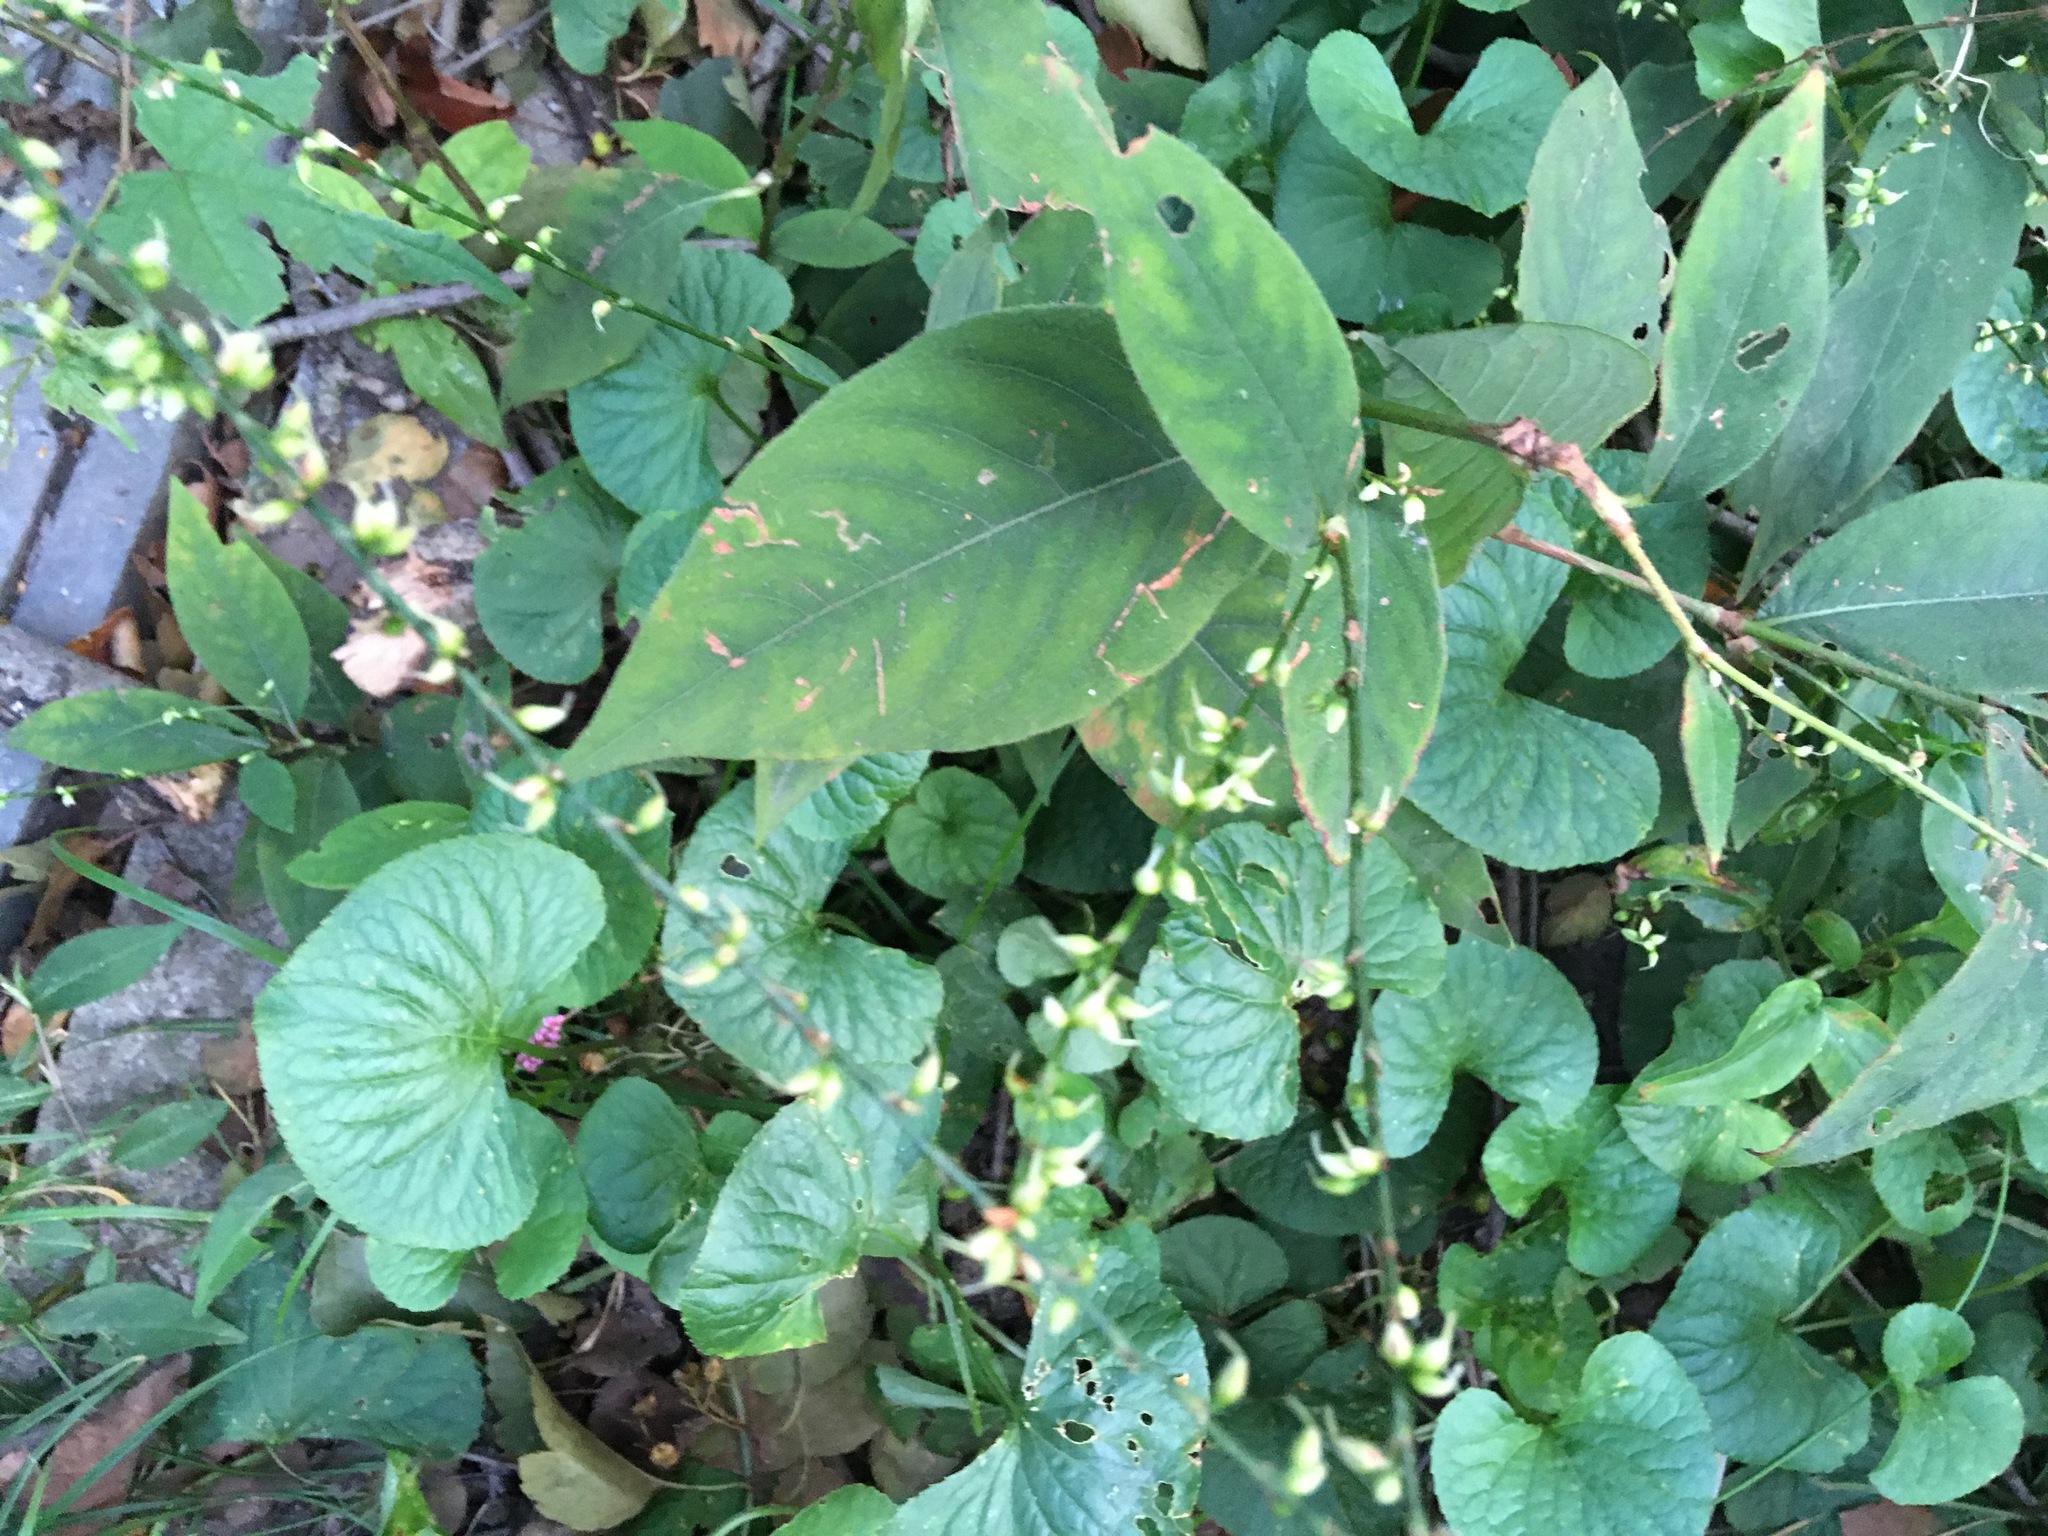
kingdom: Plantae
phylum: Tracheophyta
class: Magnoliopsida
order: Caryophyllales
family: Polygonaceae
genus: Persicaria
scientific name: Persicaria virginiana
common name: Jumpseed
